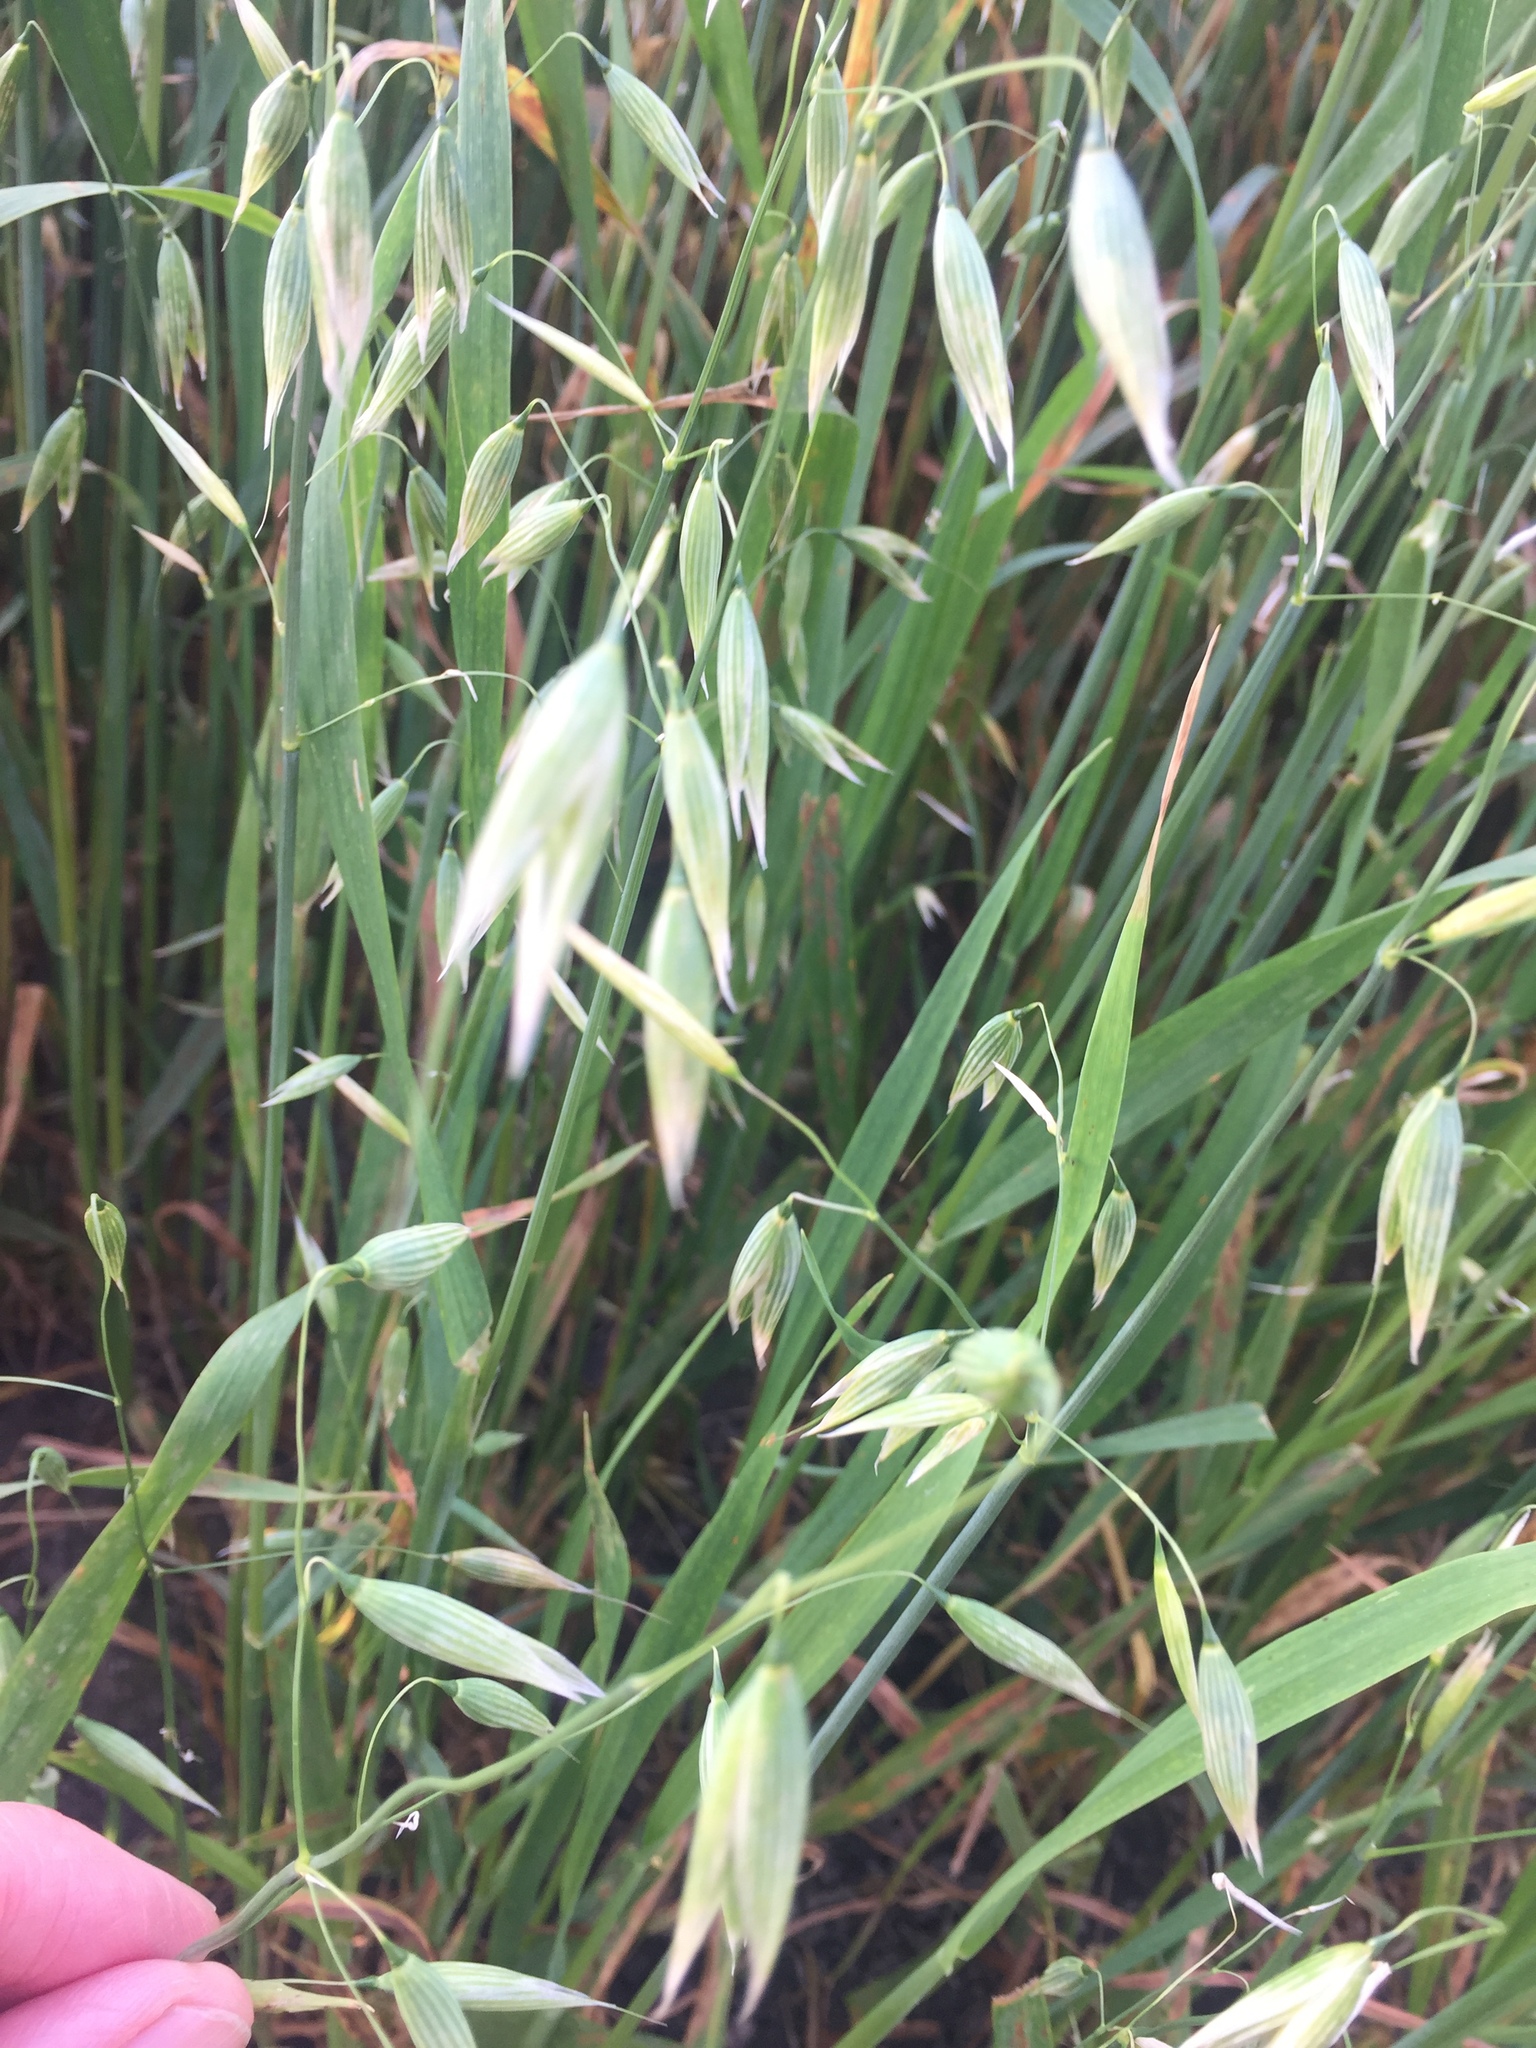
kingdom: Plantae
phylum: Tracheophyta
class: Liliopsida
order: Poales
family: Poaceae
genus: Avena
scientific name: Avena sativa
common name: Oat
